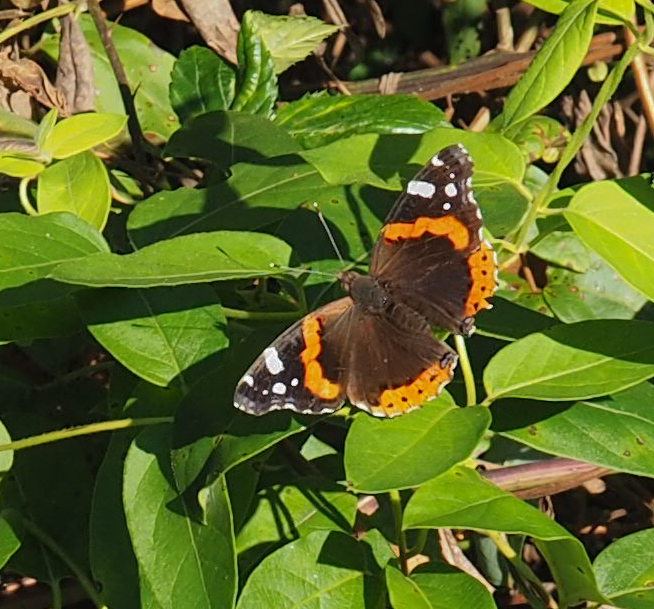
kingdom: Animalia
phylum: Arthropoda
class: Insecta
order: Lepidoptera
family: Nymphalidae
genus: Vanessa
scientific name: Vanessa atalanta
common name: Red admiral
